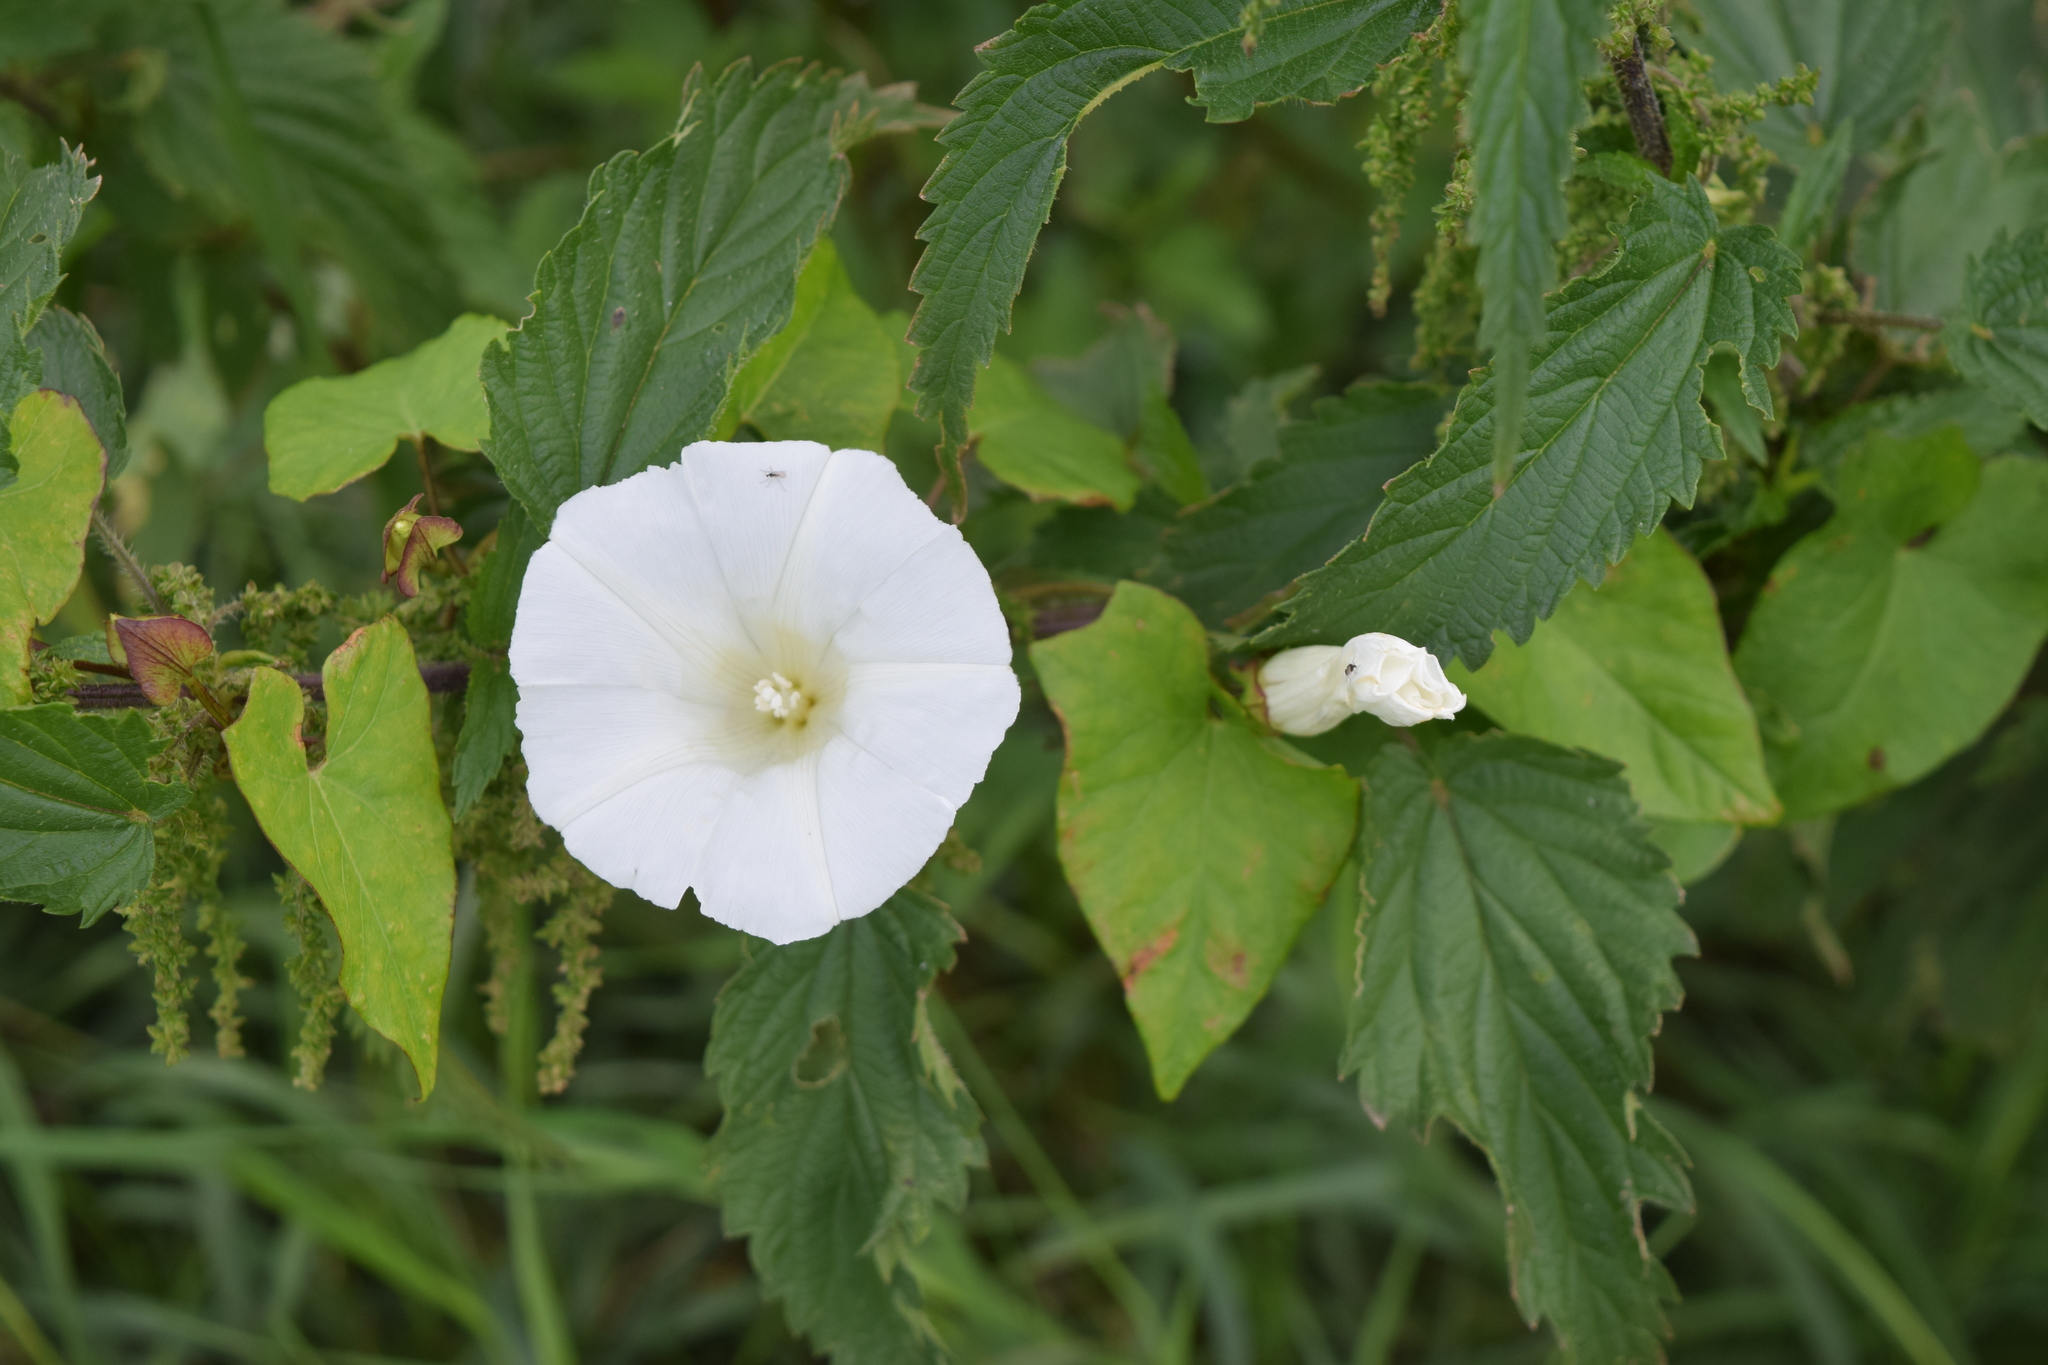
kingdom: Plantae
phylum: Tracheophyta
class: Magnoliopsida
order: Solanales
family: Convolvulaceae
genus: Calystegia
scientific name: Calystegia sepium
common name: Hedge bindweed
